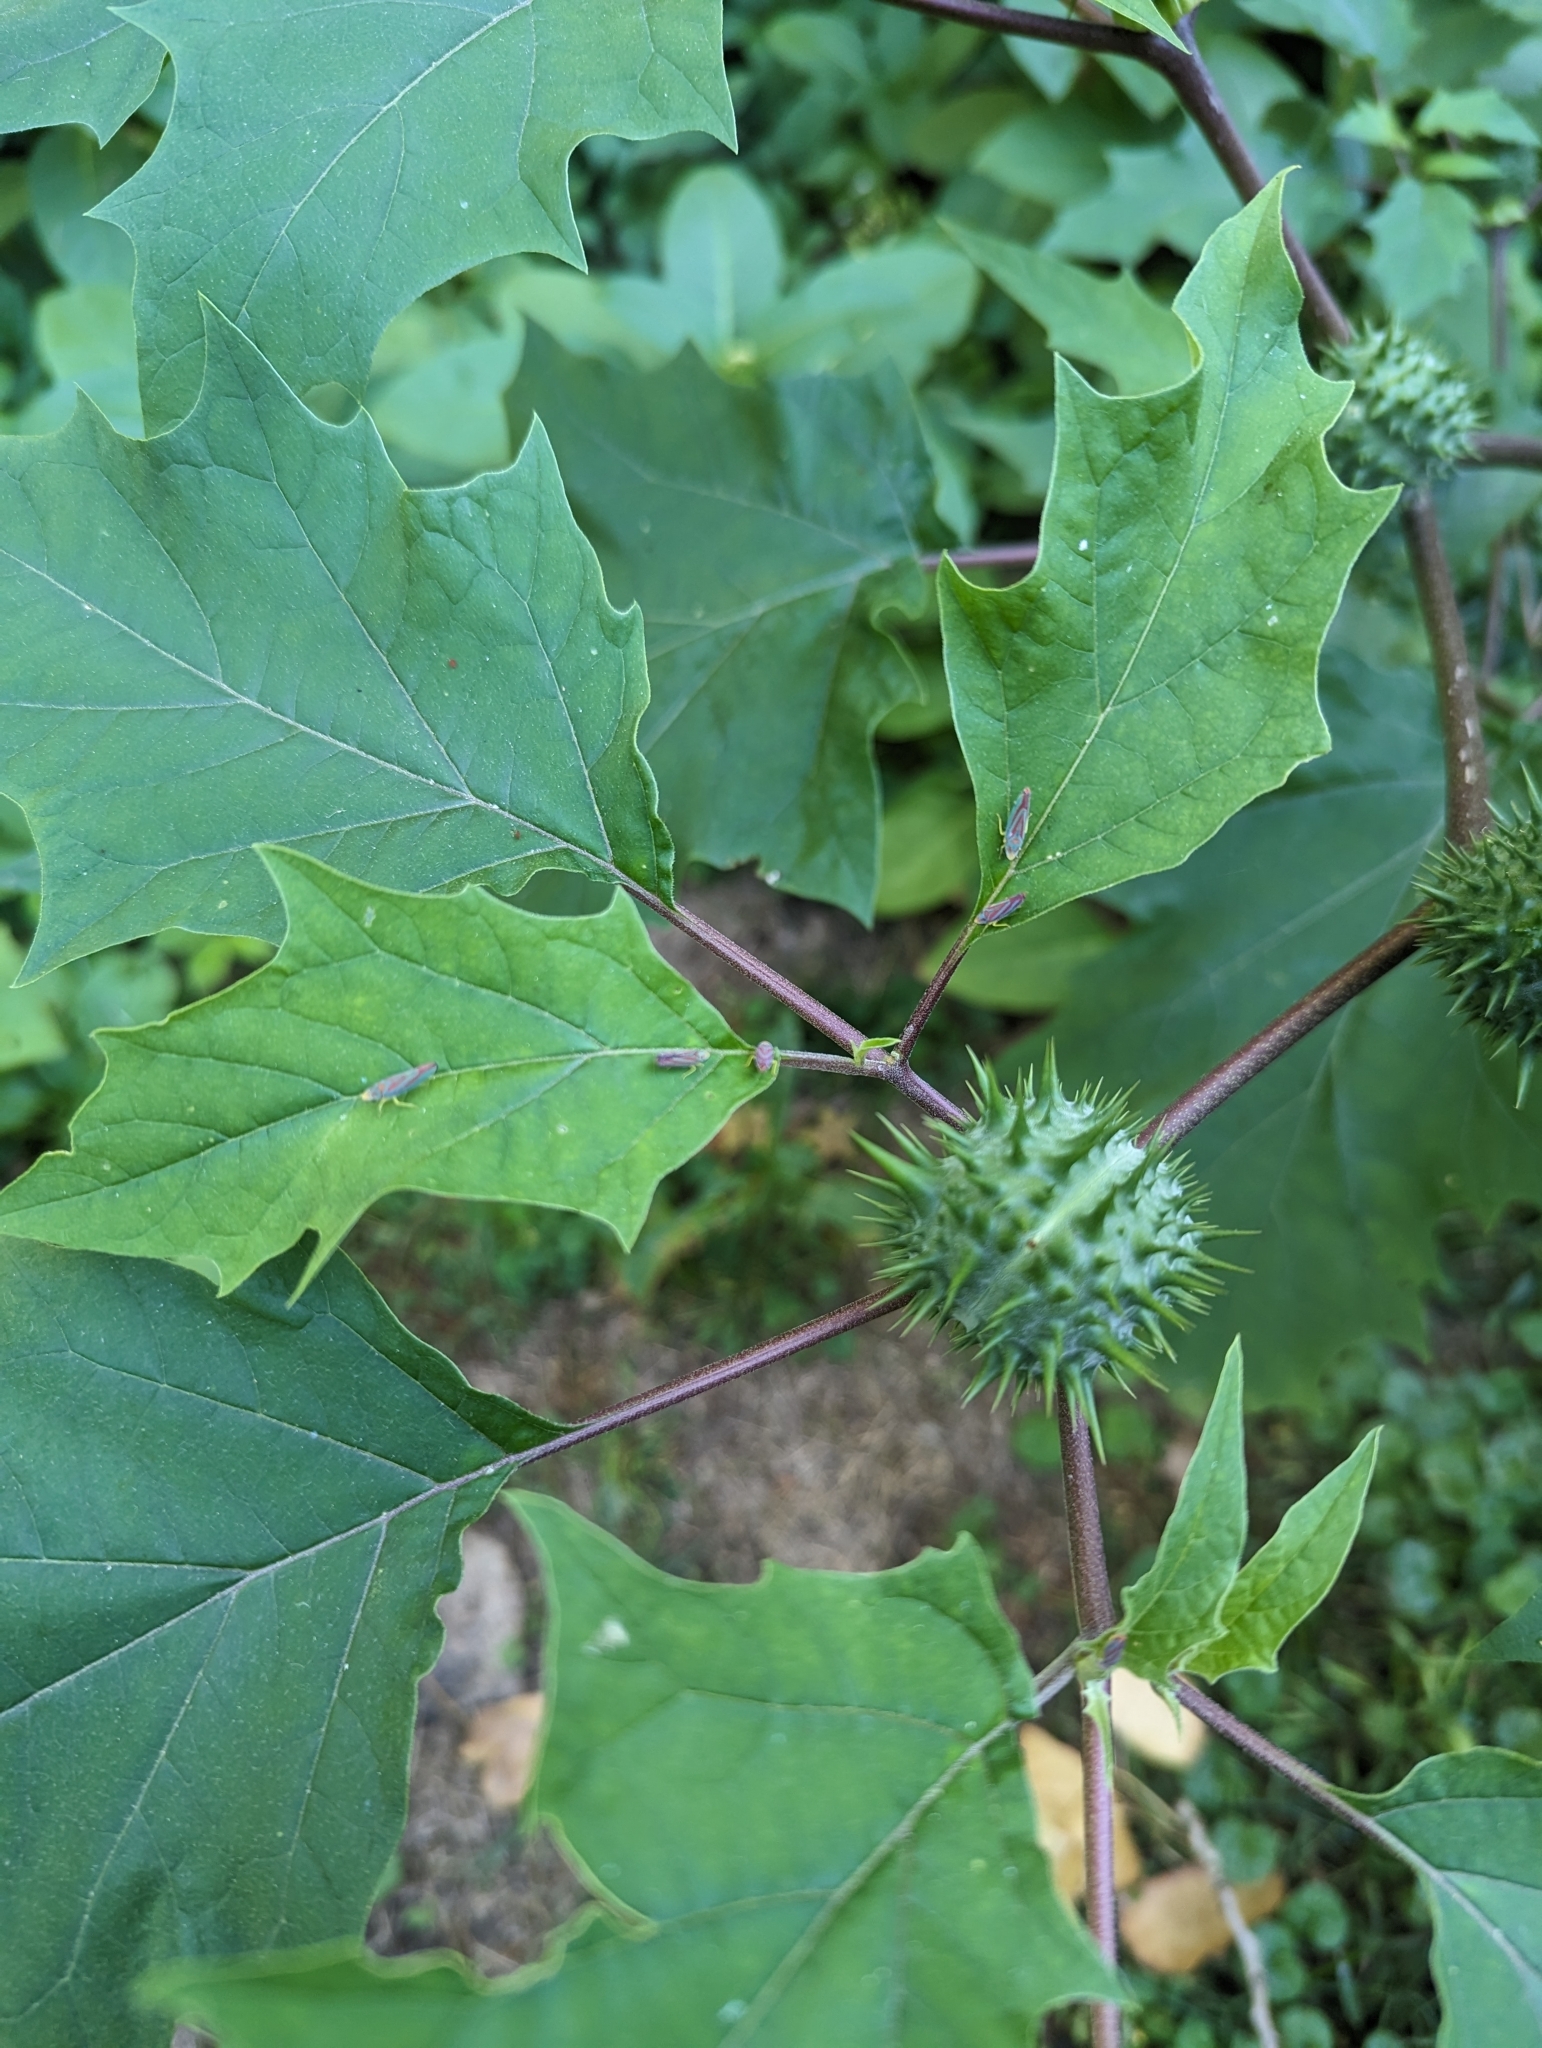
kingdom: Plantae
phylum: Tracheophyta
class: Magnoliopsida
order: Solanales
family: Solanaceae
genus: Datura
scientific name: Datura stramonium
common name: Thorn-apple
